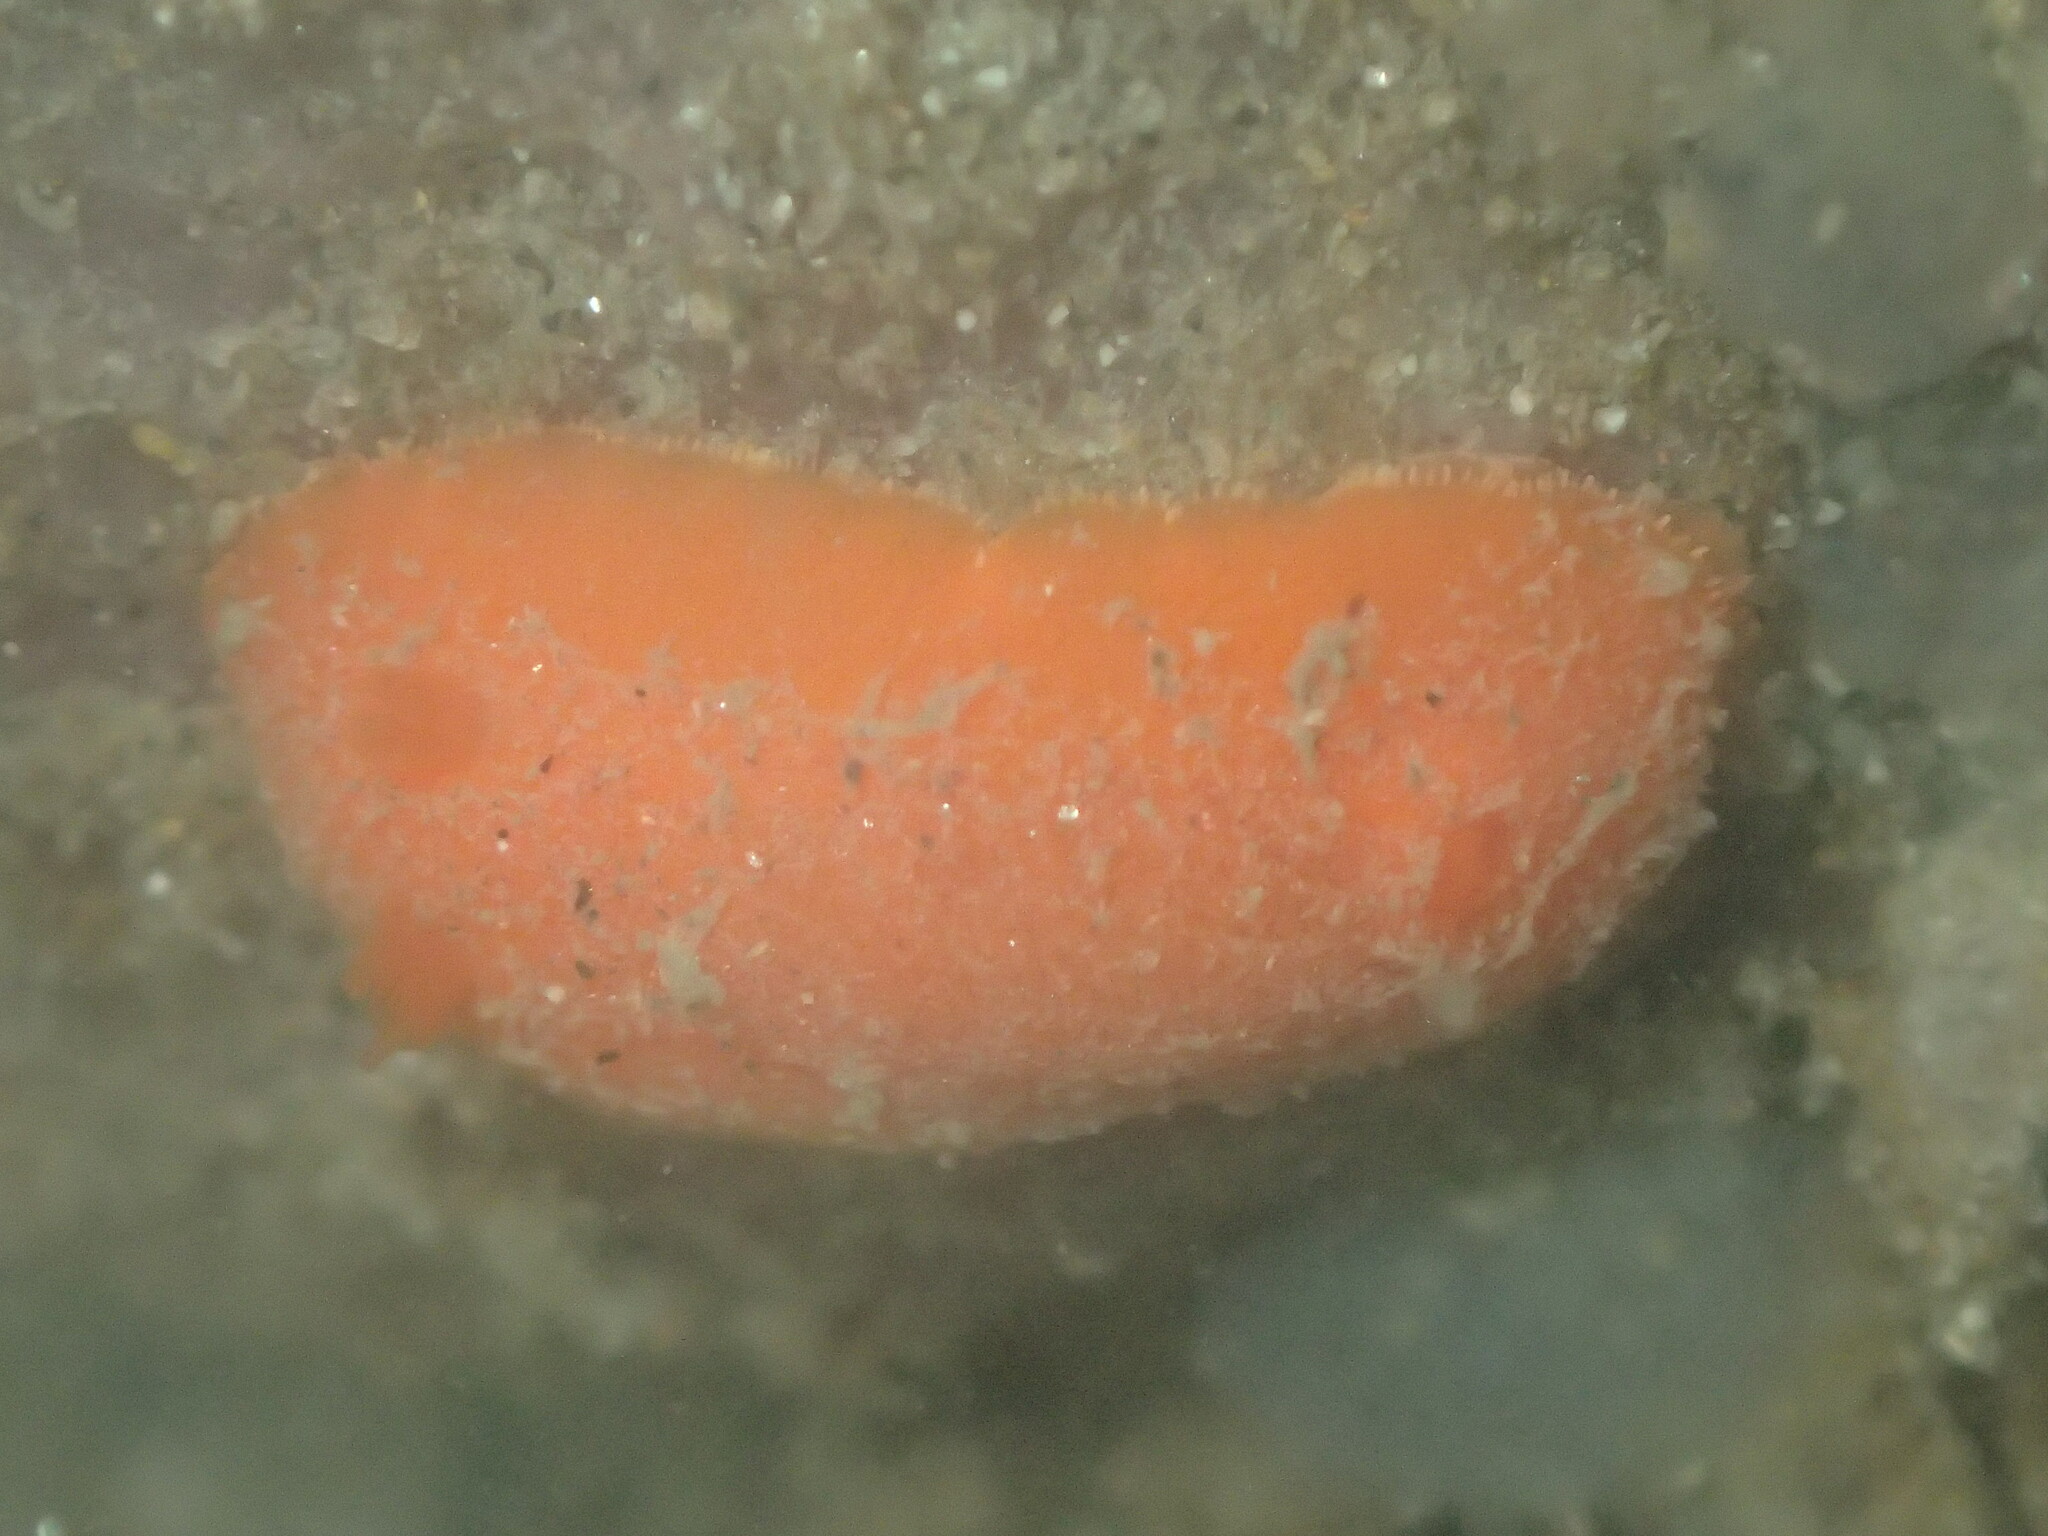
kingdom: Animalia
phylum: Mollusca
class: Gastropoda
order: Nudibranchia
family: Discodorididae
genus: Rostanga
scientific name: Rostanga pulchra
